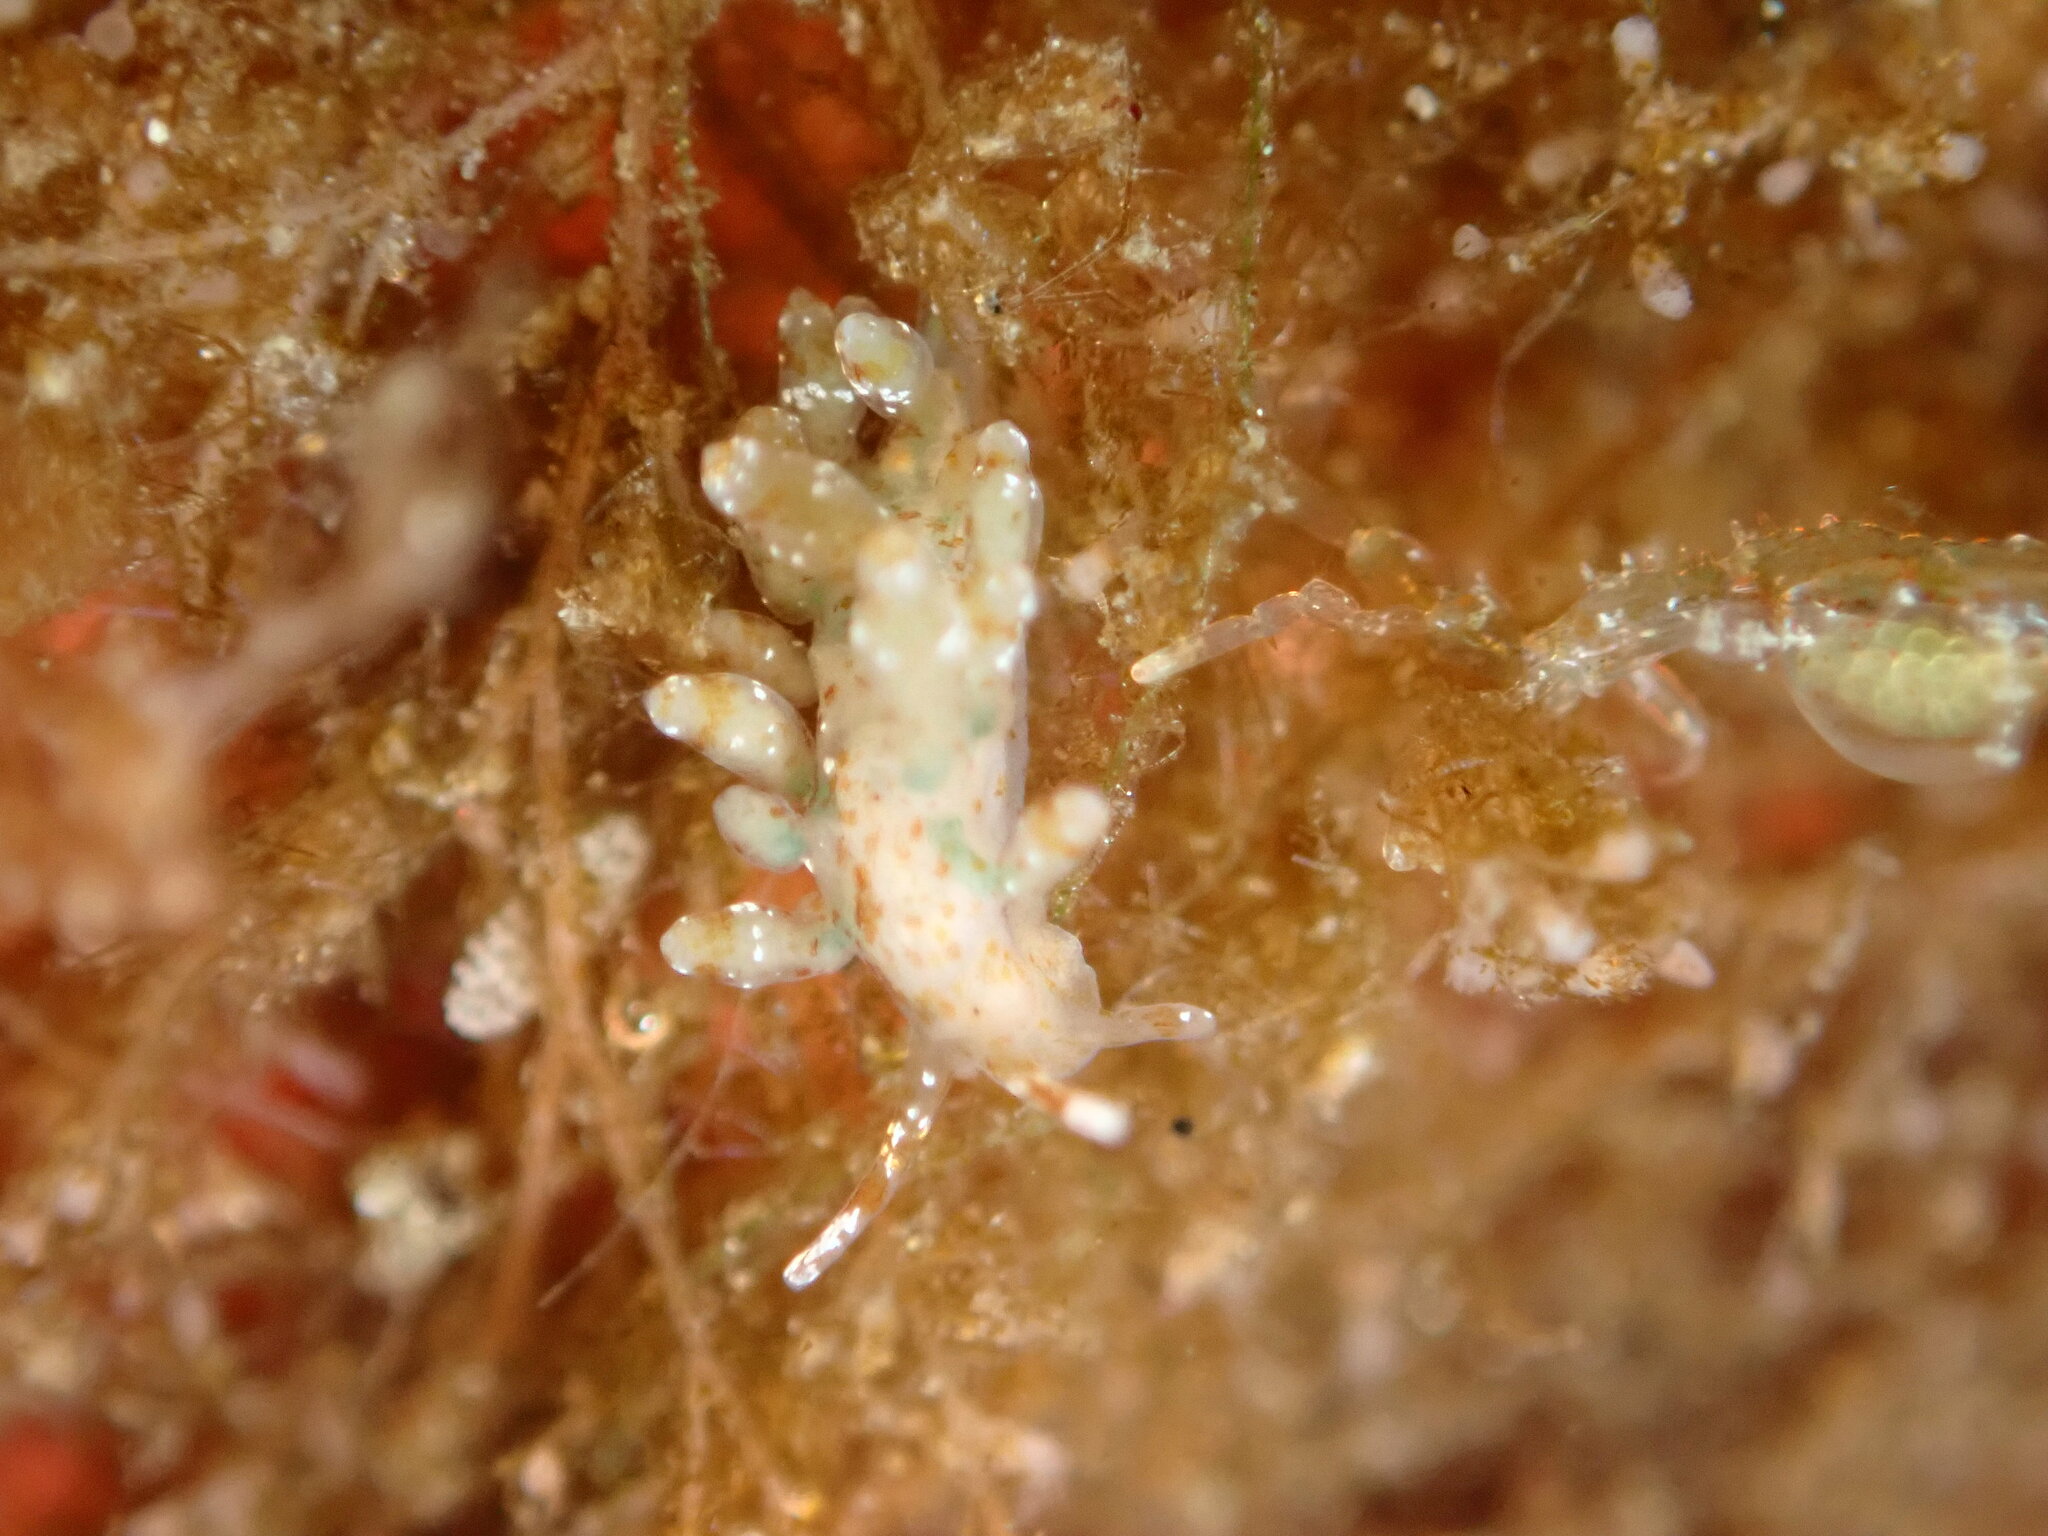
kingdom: Animalia
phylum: Mollusca
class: Gastropoda
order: Nudibranchia
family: Eubranchidae
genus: Eubranchus
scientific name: Eubranchus olivaceus
